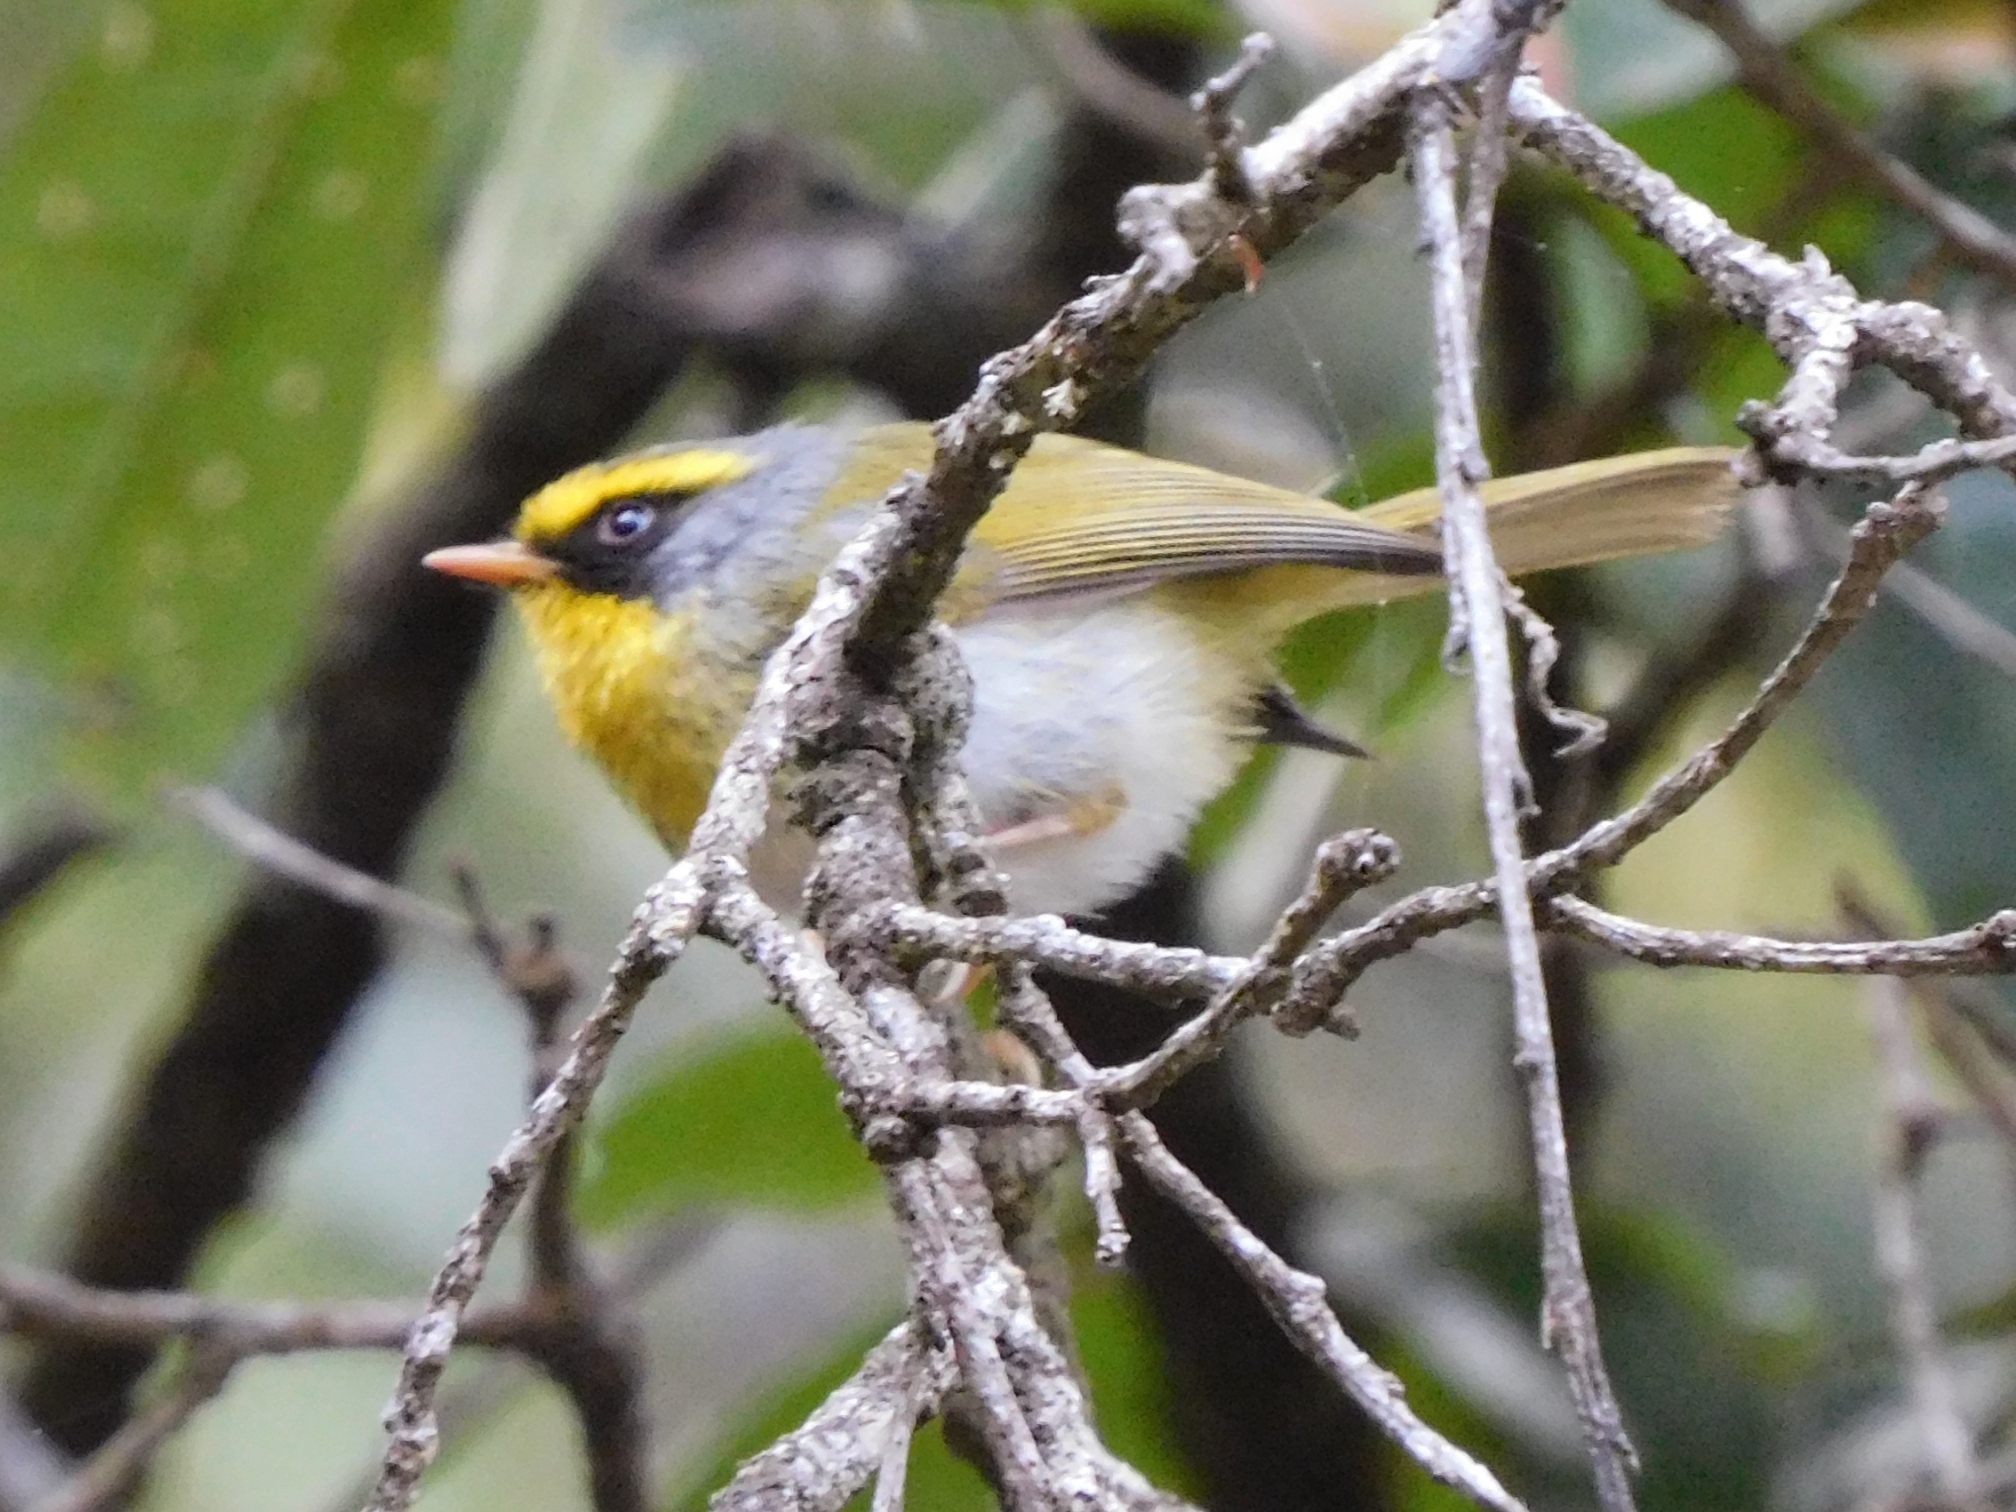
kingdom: Animalia
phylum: Chordata
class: Aves
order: Passeriformes
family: Stenostiridae
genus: Chelidorhynx
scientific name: Chelidorhynx hypoxantha
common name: Yellow-bellied fantail
